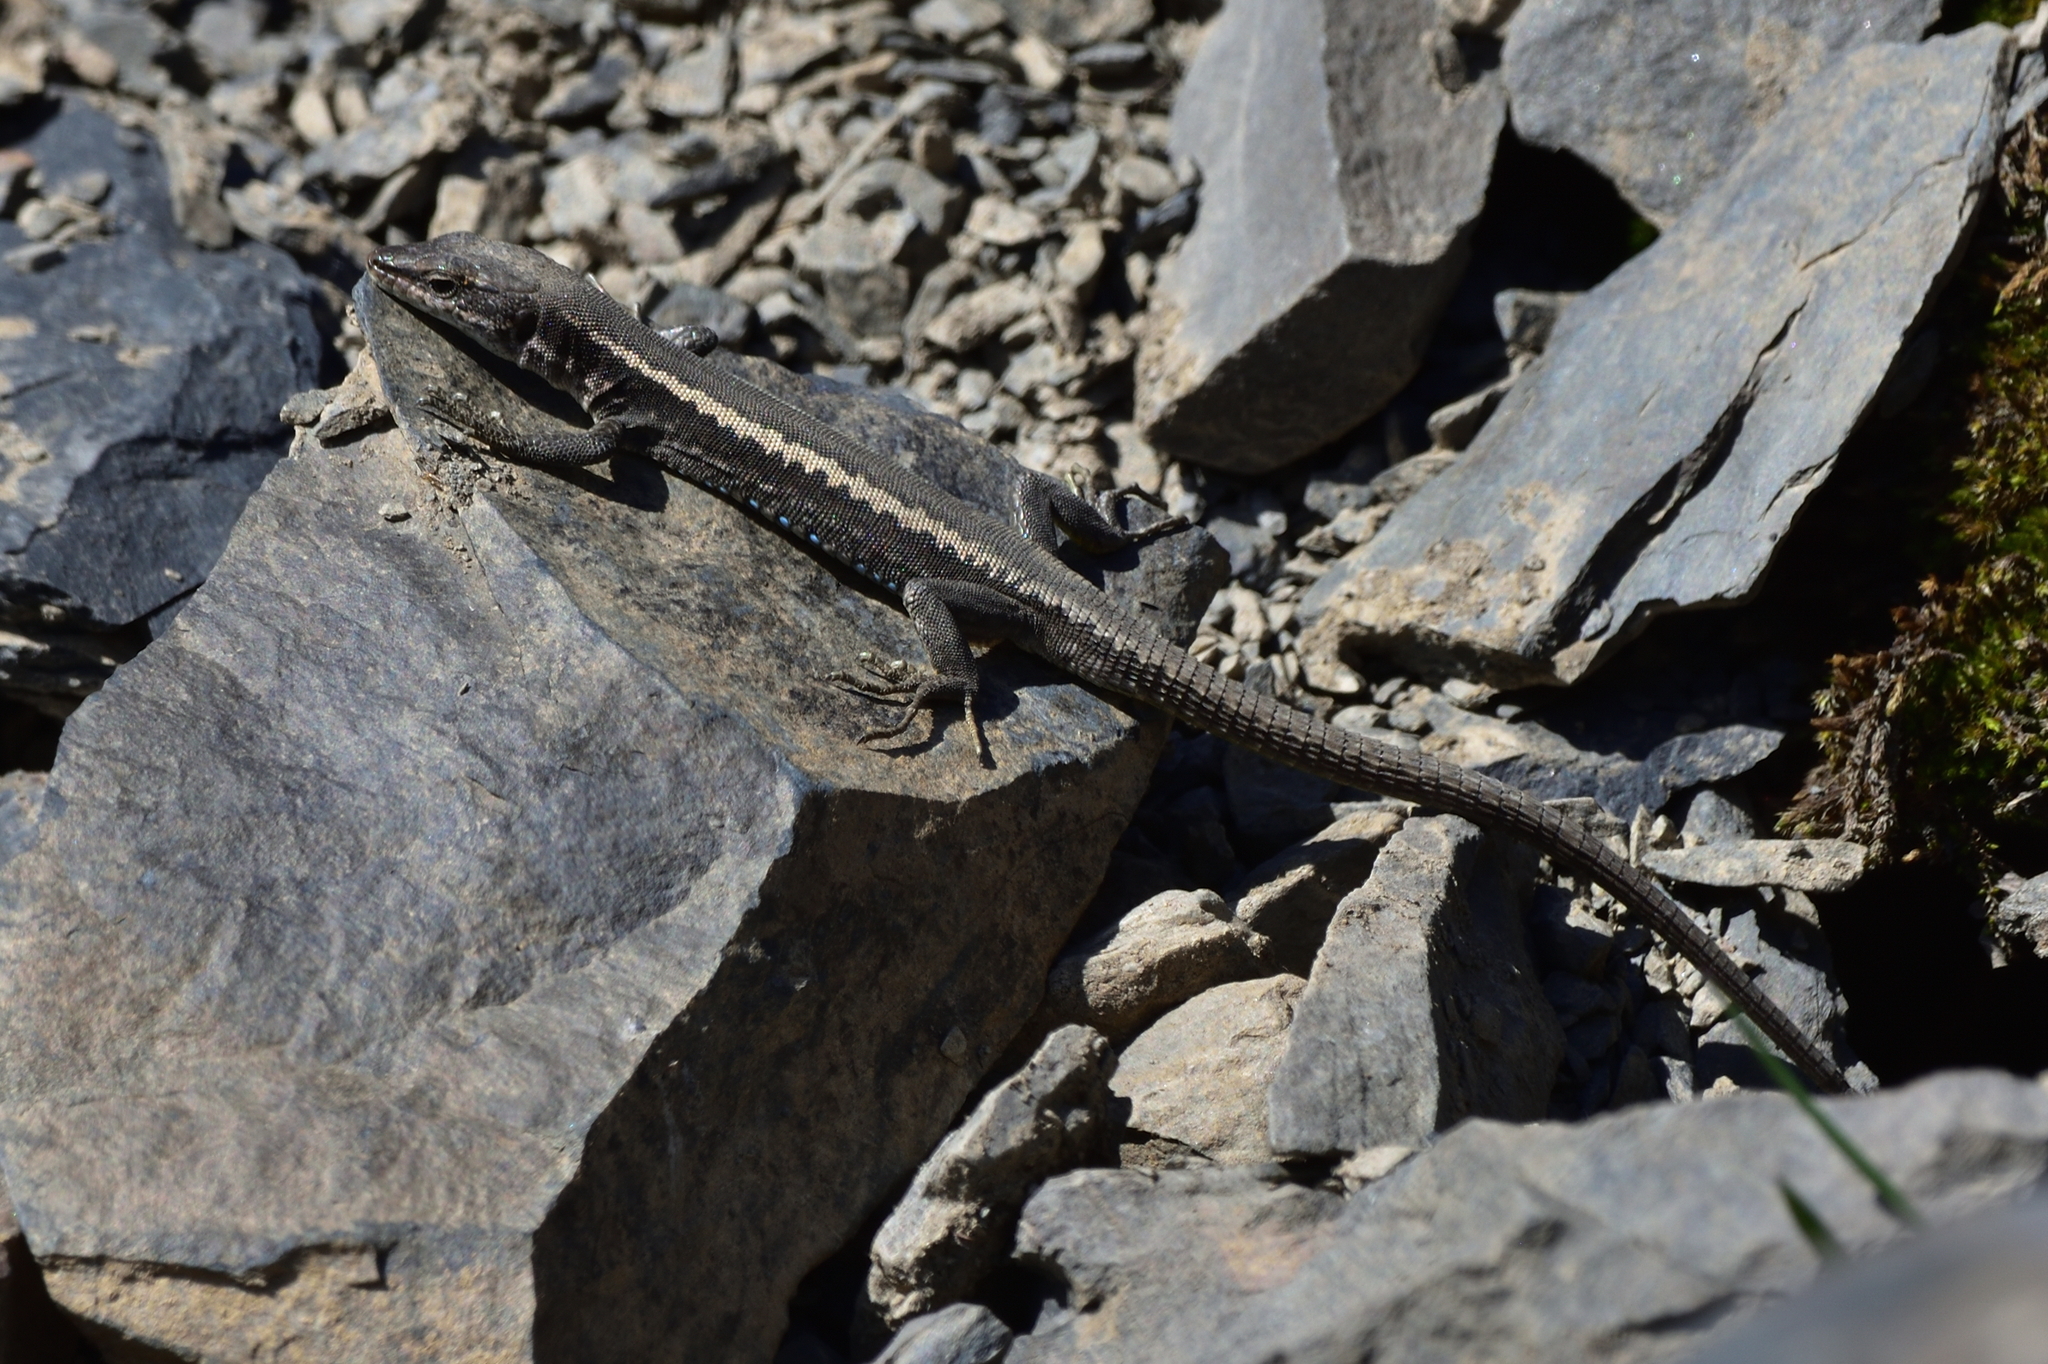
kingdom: Animalia
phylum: Chordata
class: Squamata
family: Lacertidae
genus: Darevskia
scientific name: Darevskia daghestanica
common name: Dagestan lizard
